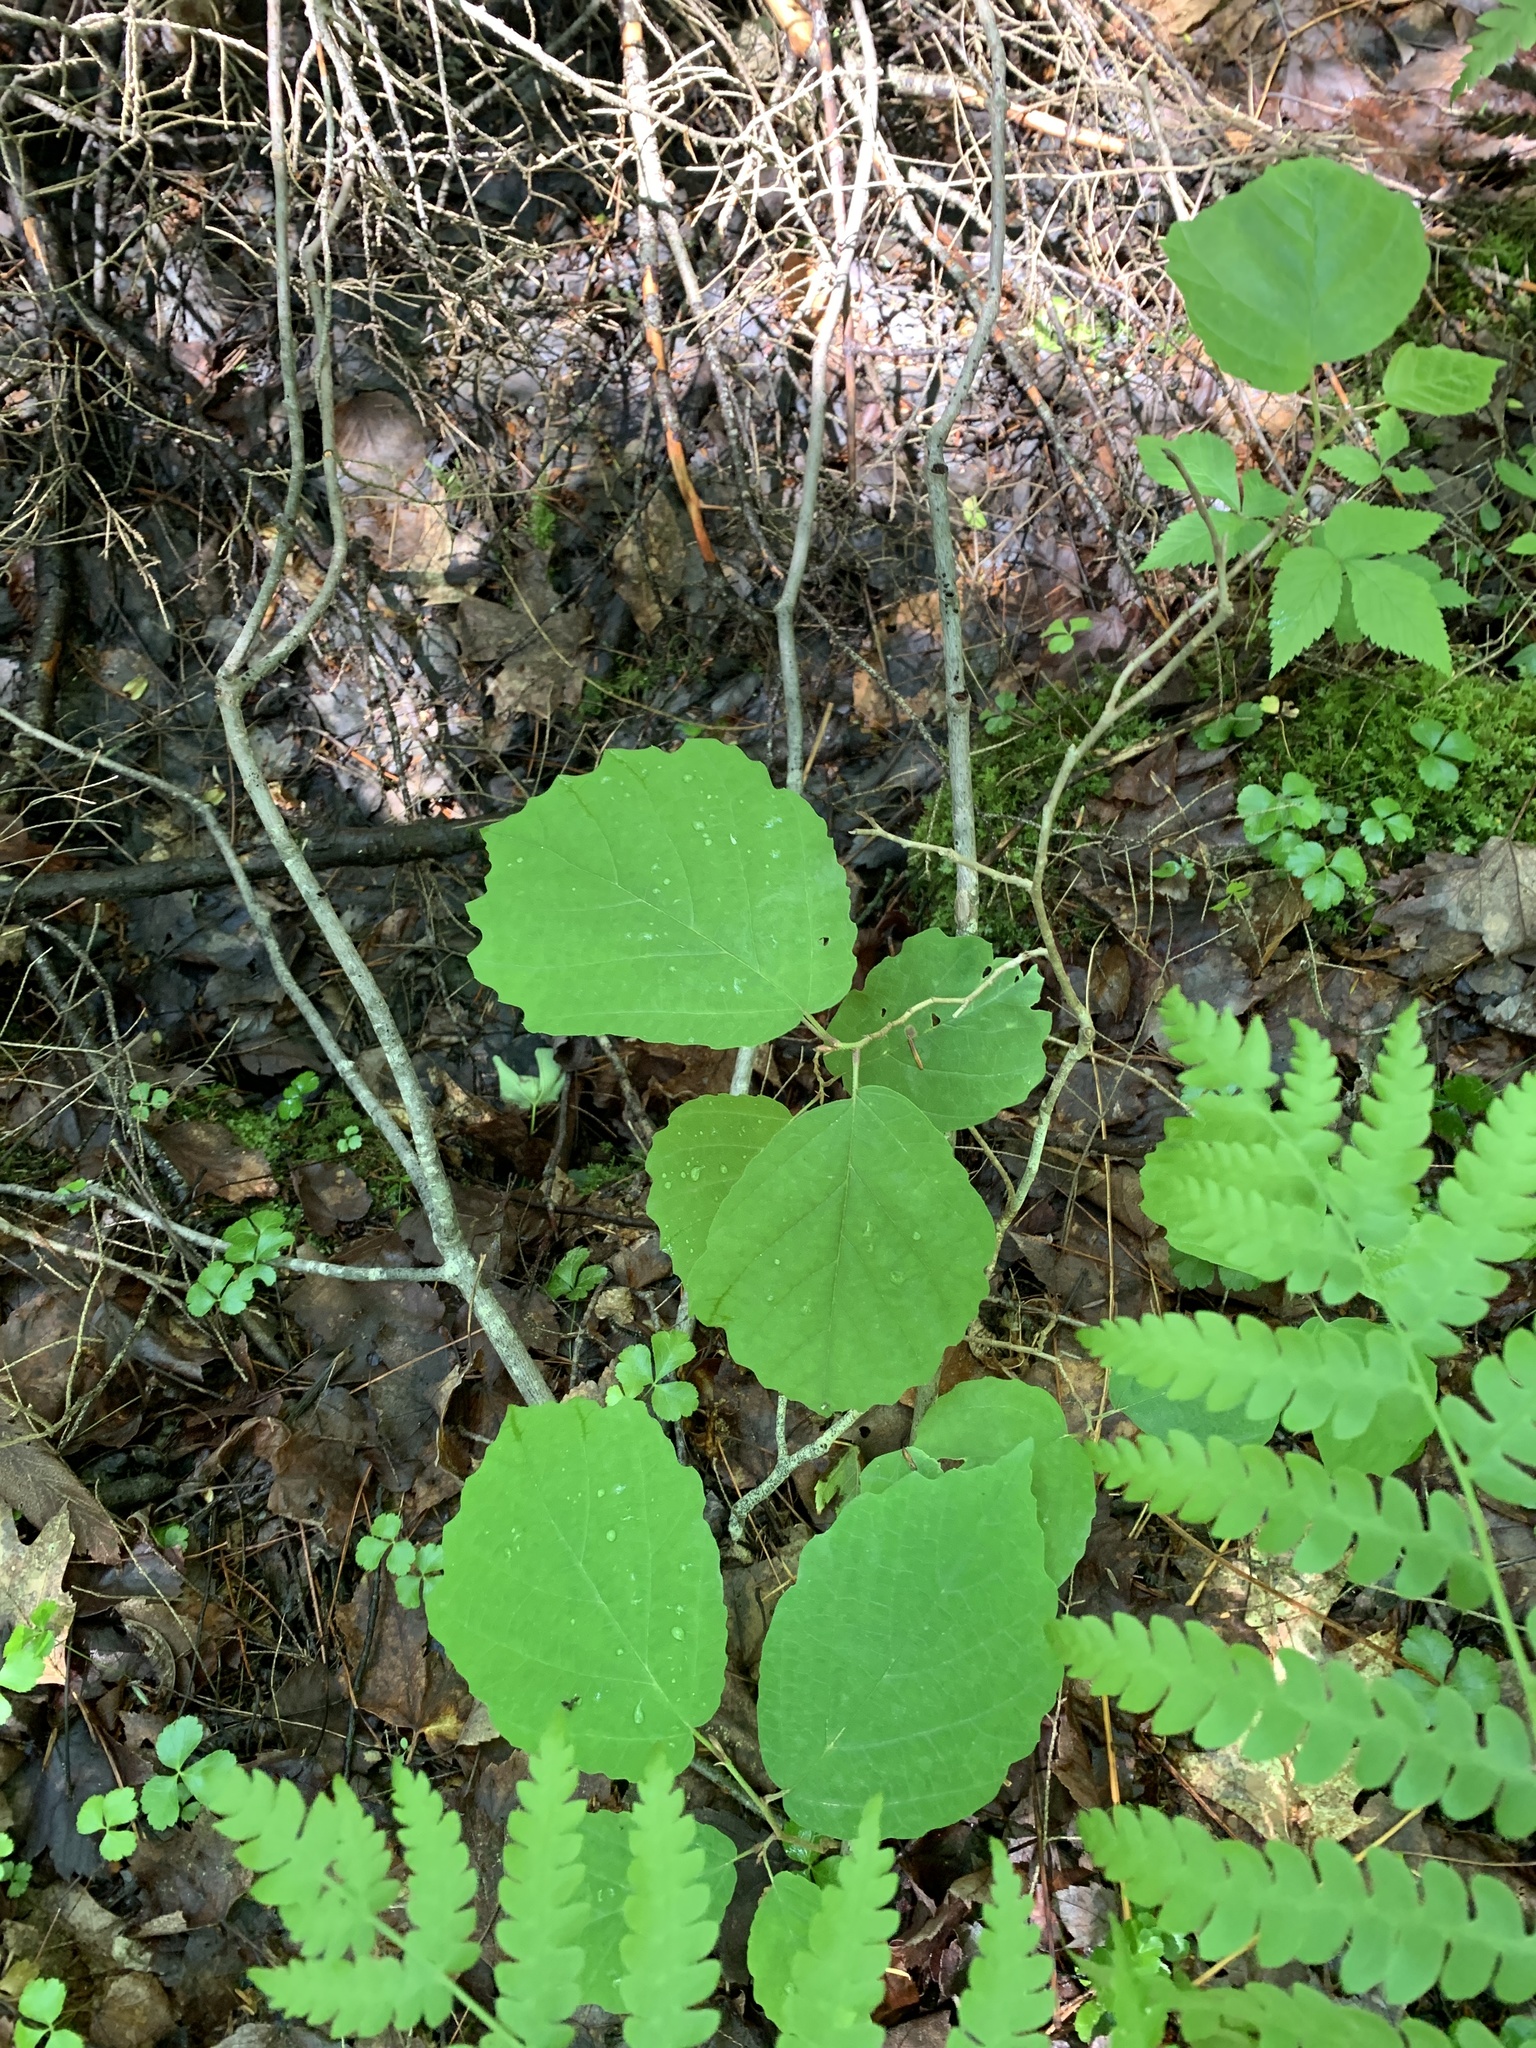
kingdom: Plantae
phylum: Tracheophyta
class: Magnoliopsida
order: Saxifragales
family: Hamamelidaceae
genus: Hamamelis
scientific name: Hamamelis virginiana
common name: Witch-hazel
